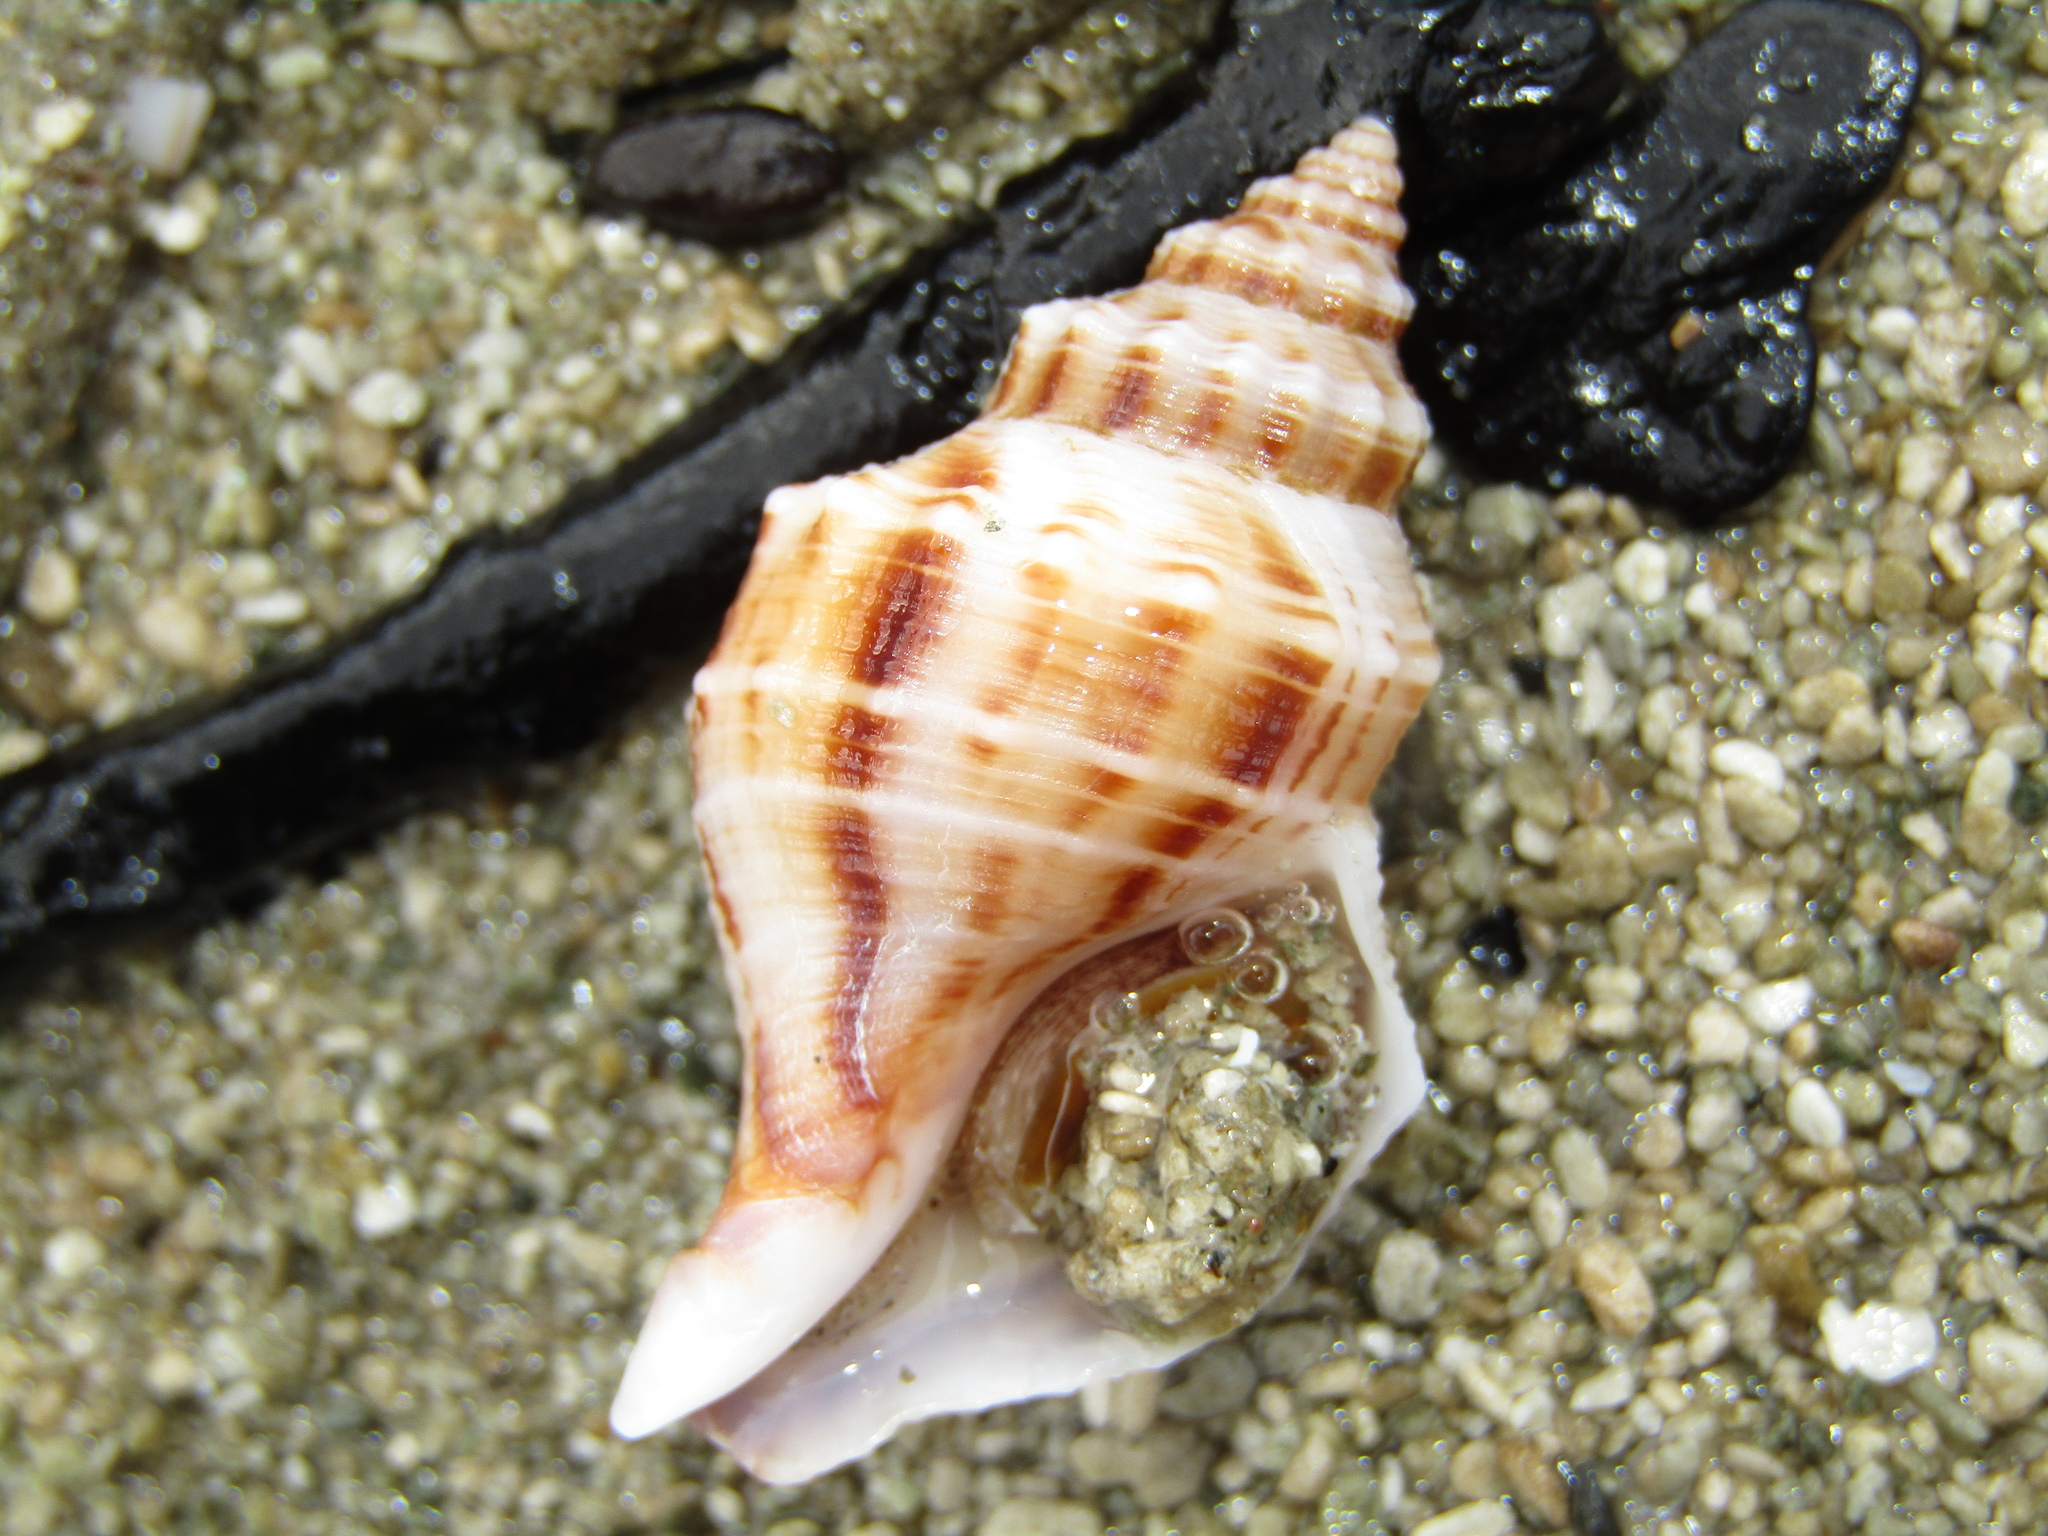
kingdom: Animalia
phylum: Mollusca
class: Gastropoda
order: Neogastropoda
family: Prosiphonidae
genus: Austrofusus
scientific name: Austrofusus glans
